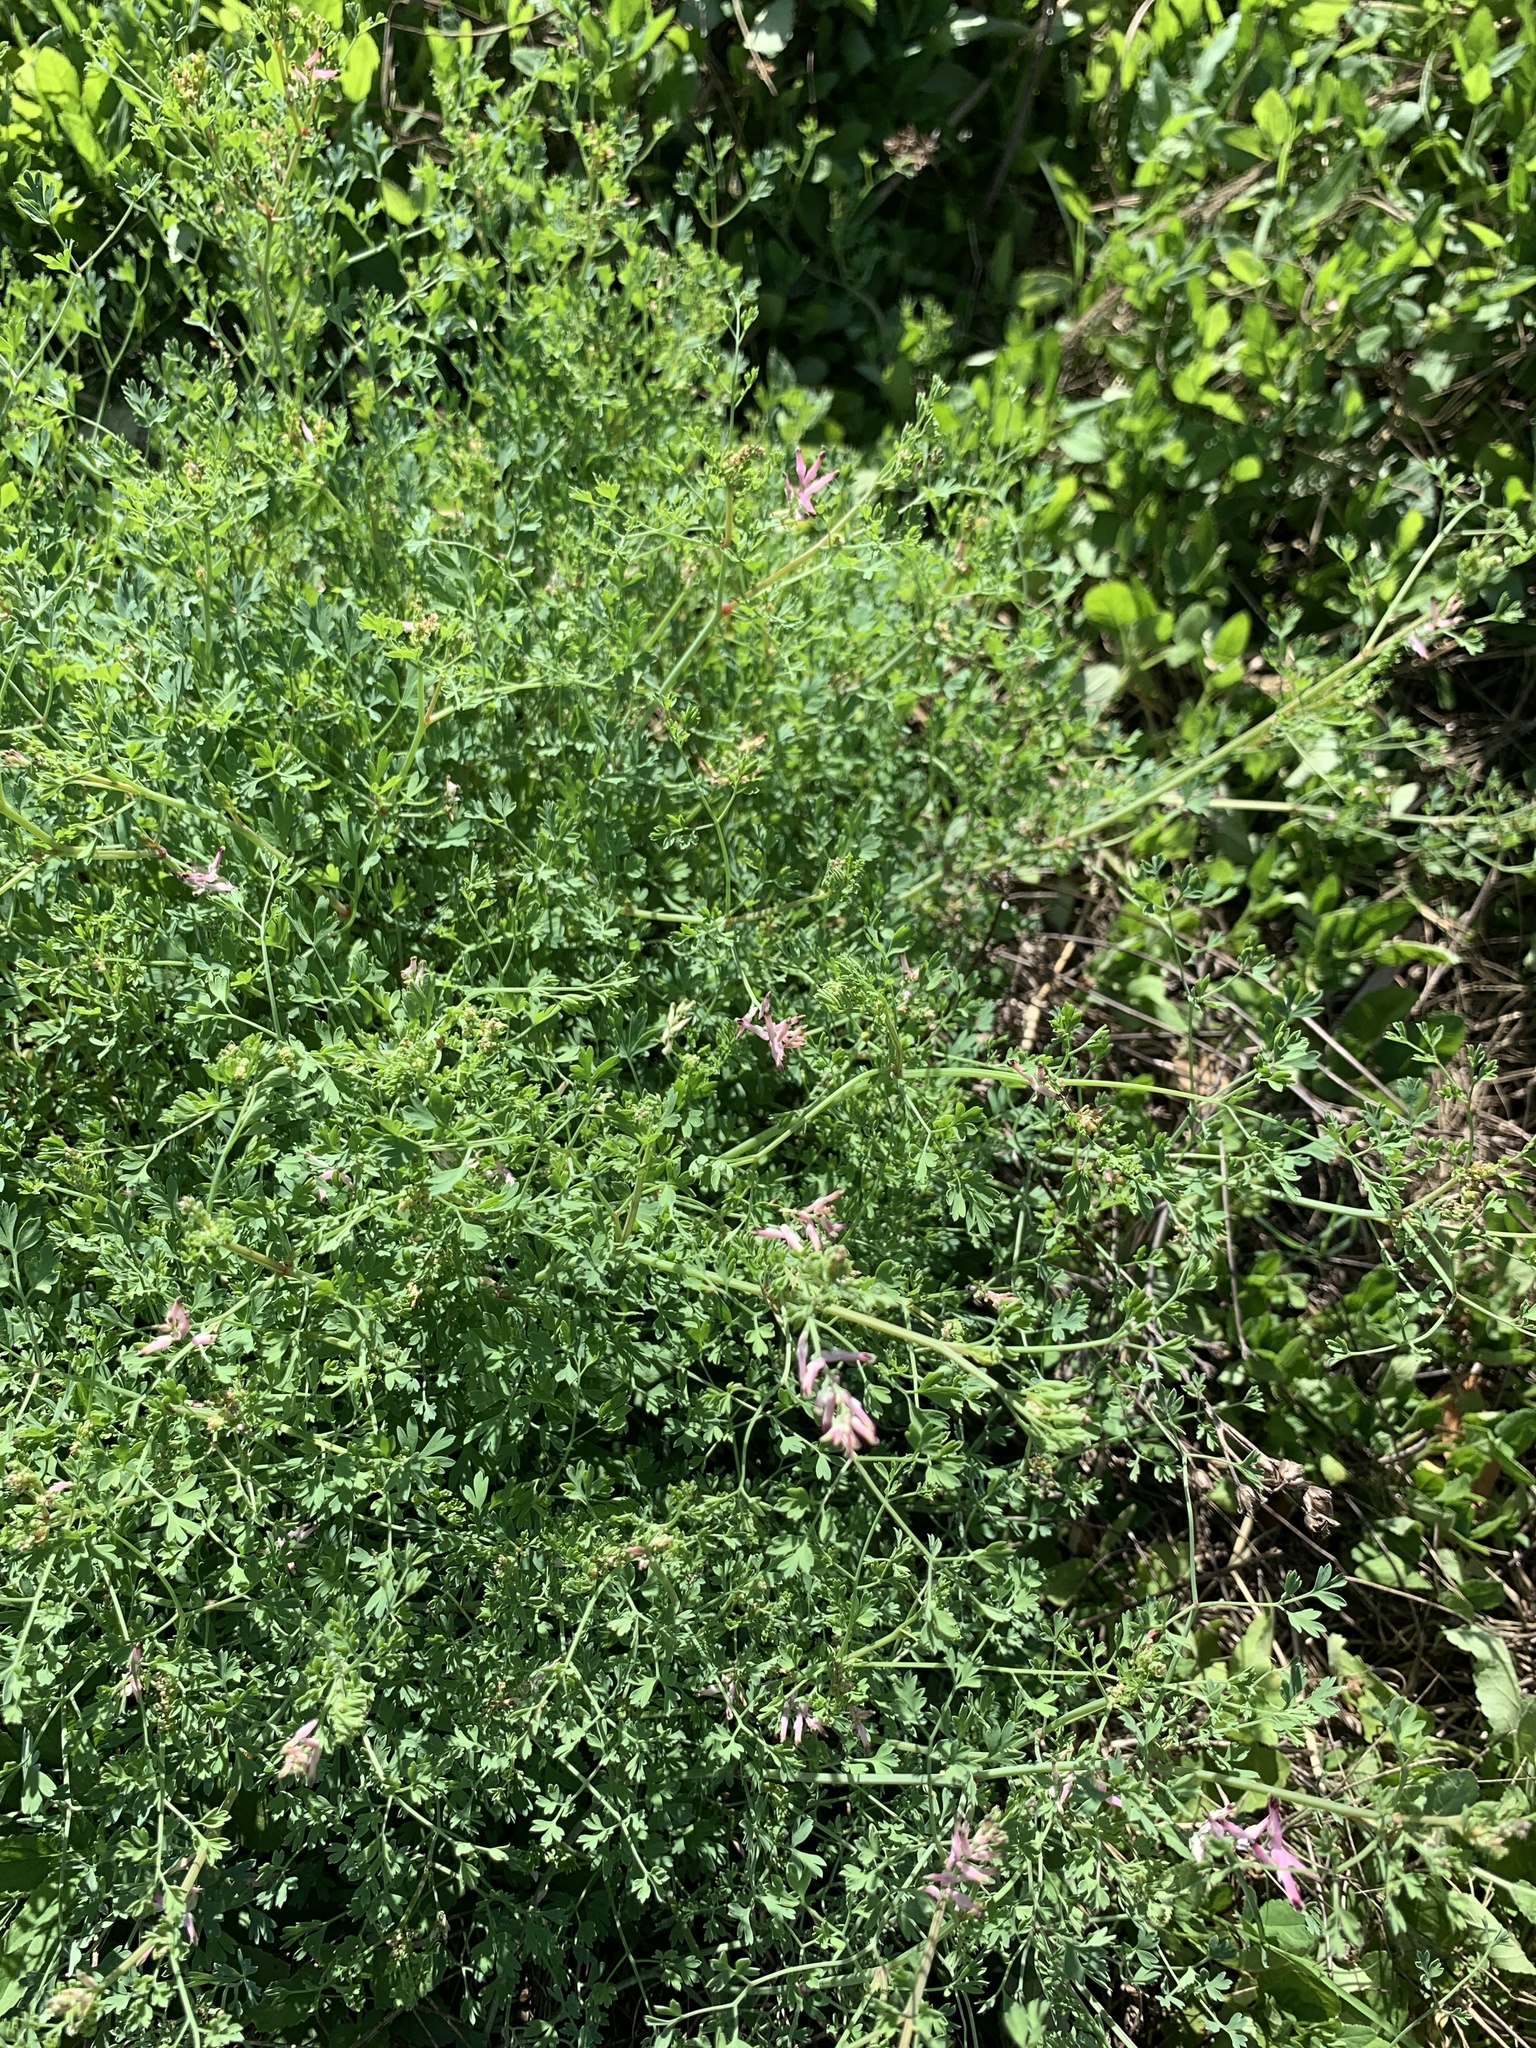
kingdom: Plantae
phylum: Tracheophyta
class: Magnoliopsida
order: Ranunculales
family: Papaveraceae
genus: Fumaria
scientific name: Fumaria muralis
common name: Common ramping-fumitory
